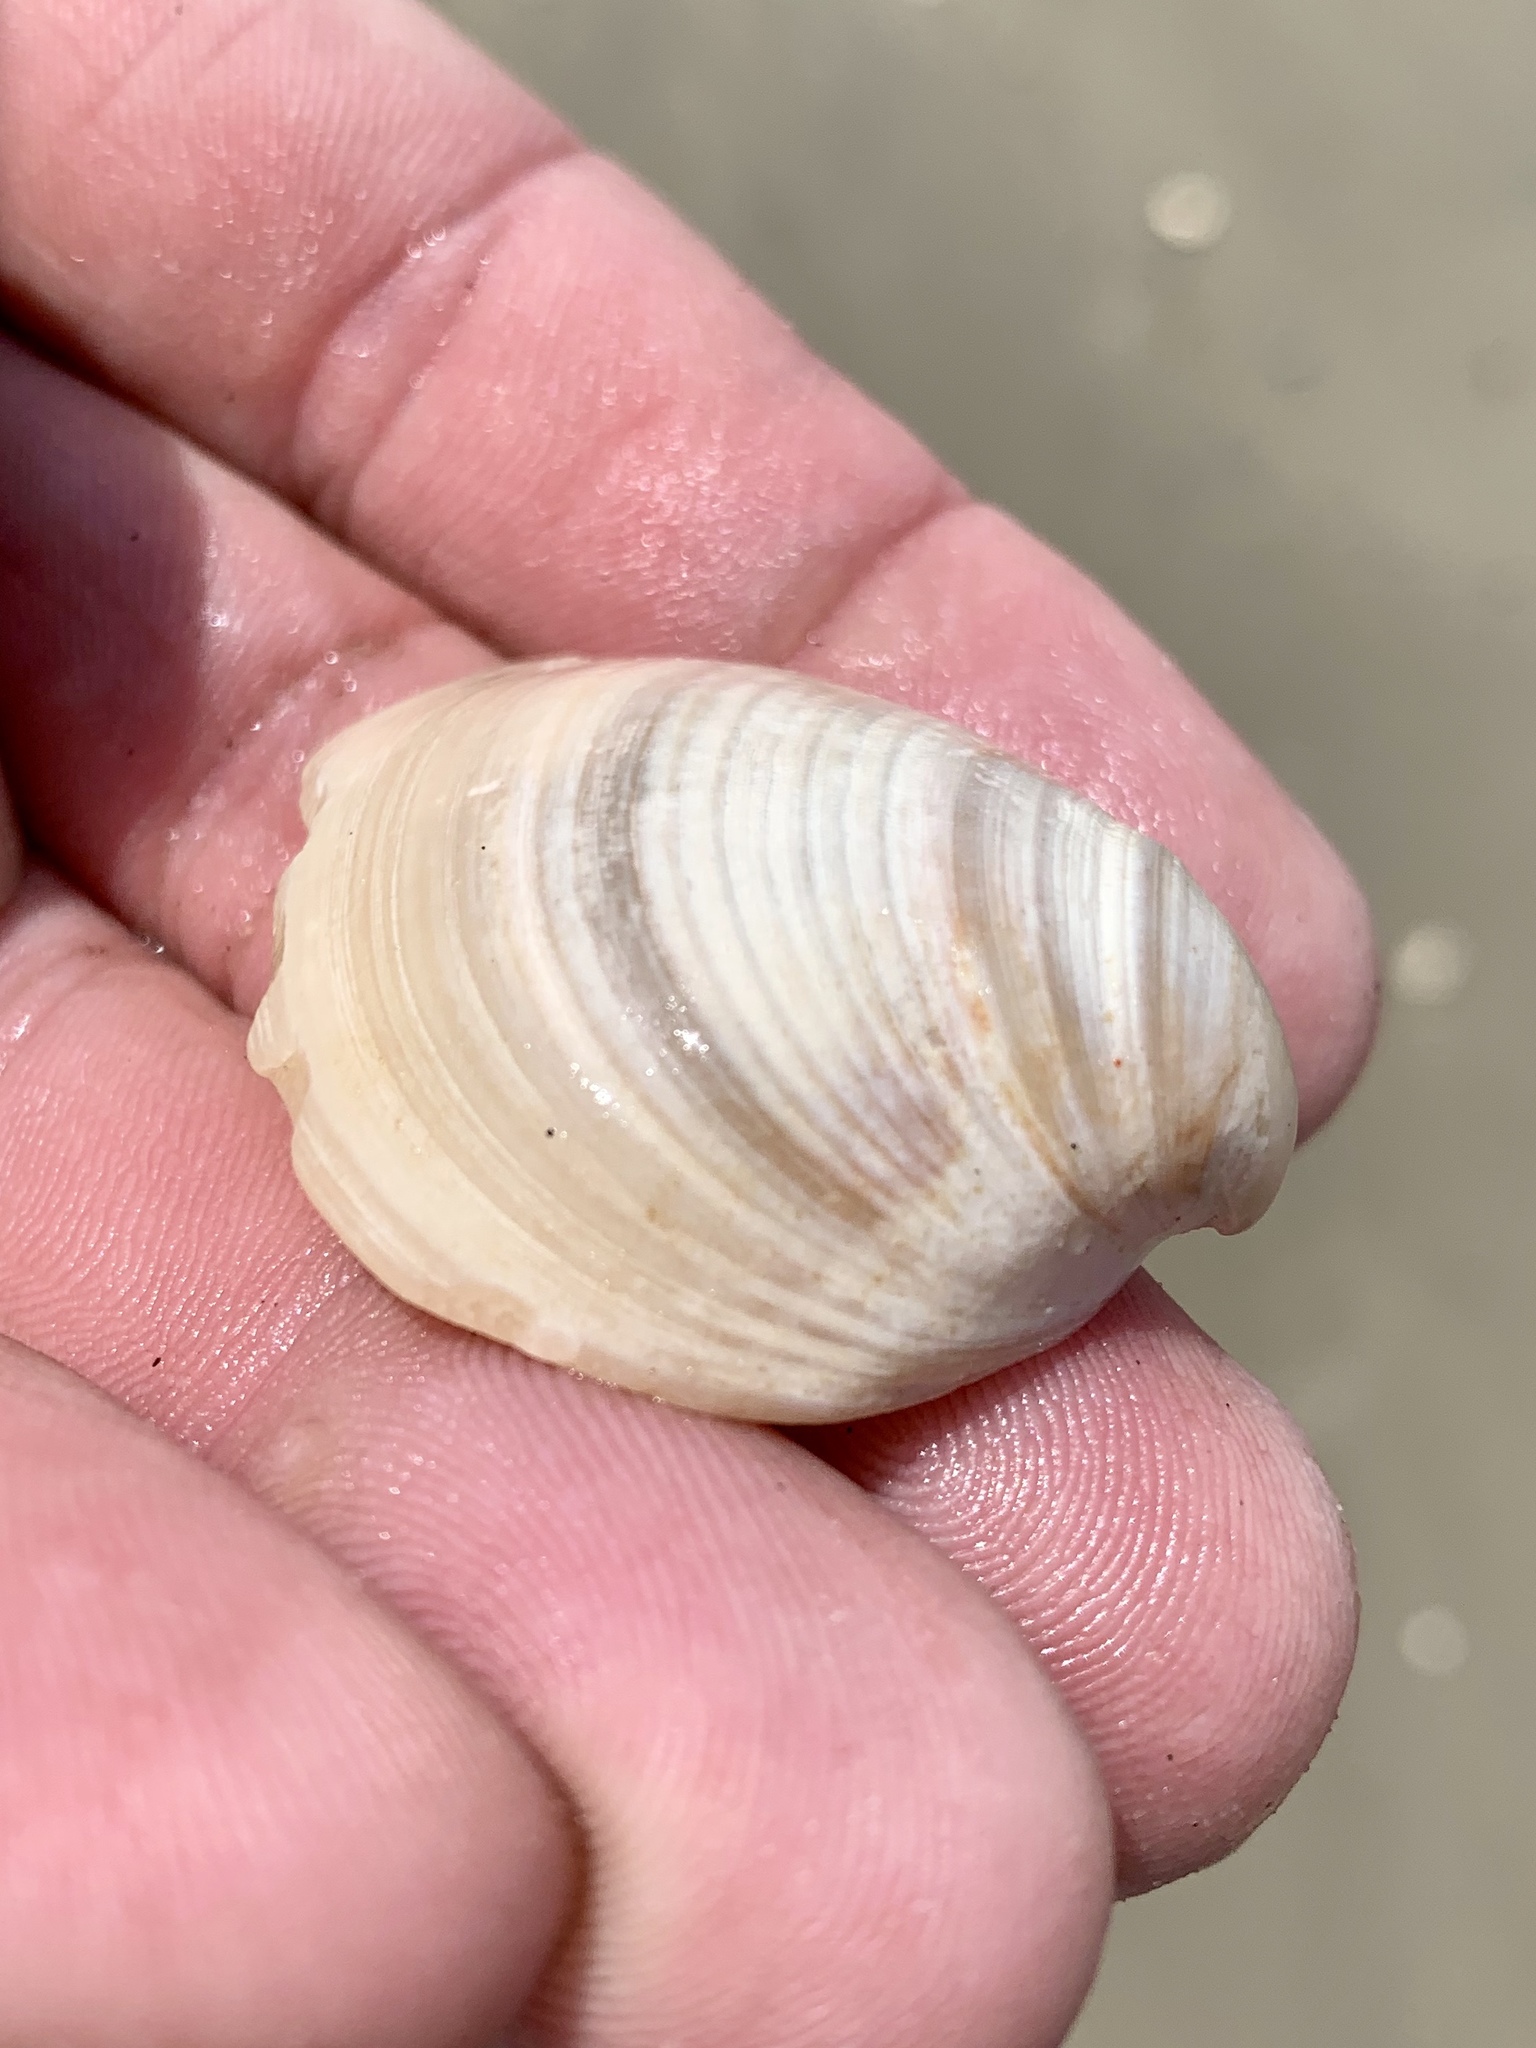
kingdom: Animalia
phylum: Mollusca
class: Bivalvia
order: Venerida
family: Mactridae
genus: Rangia
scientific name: Rangia cuneata
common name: Atlantic rangia
